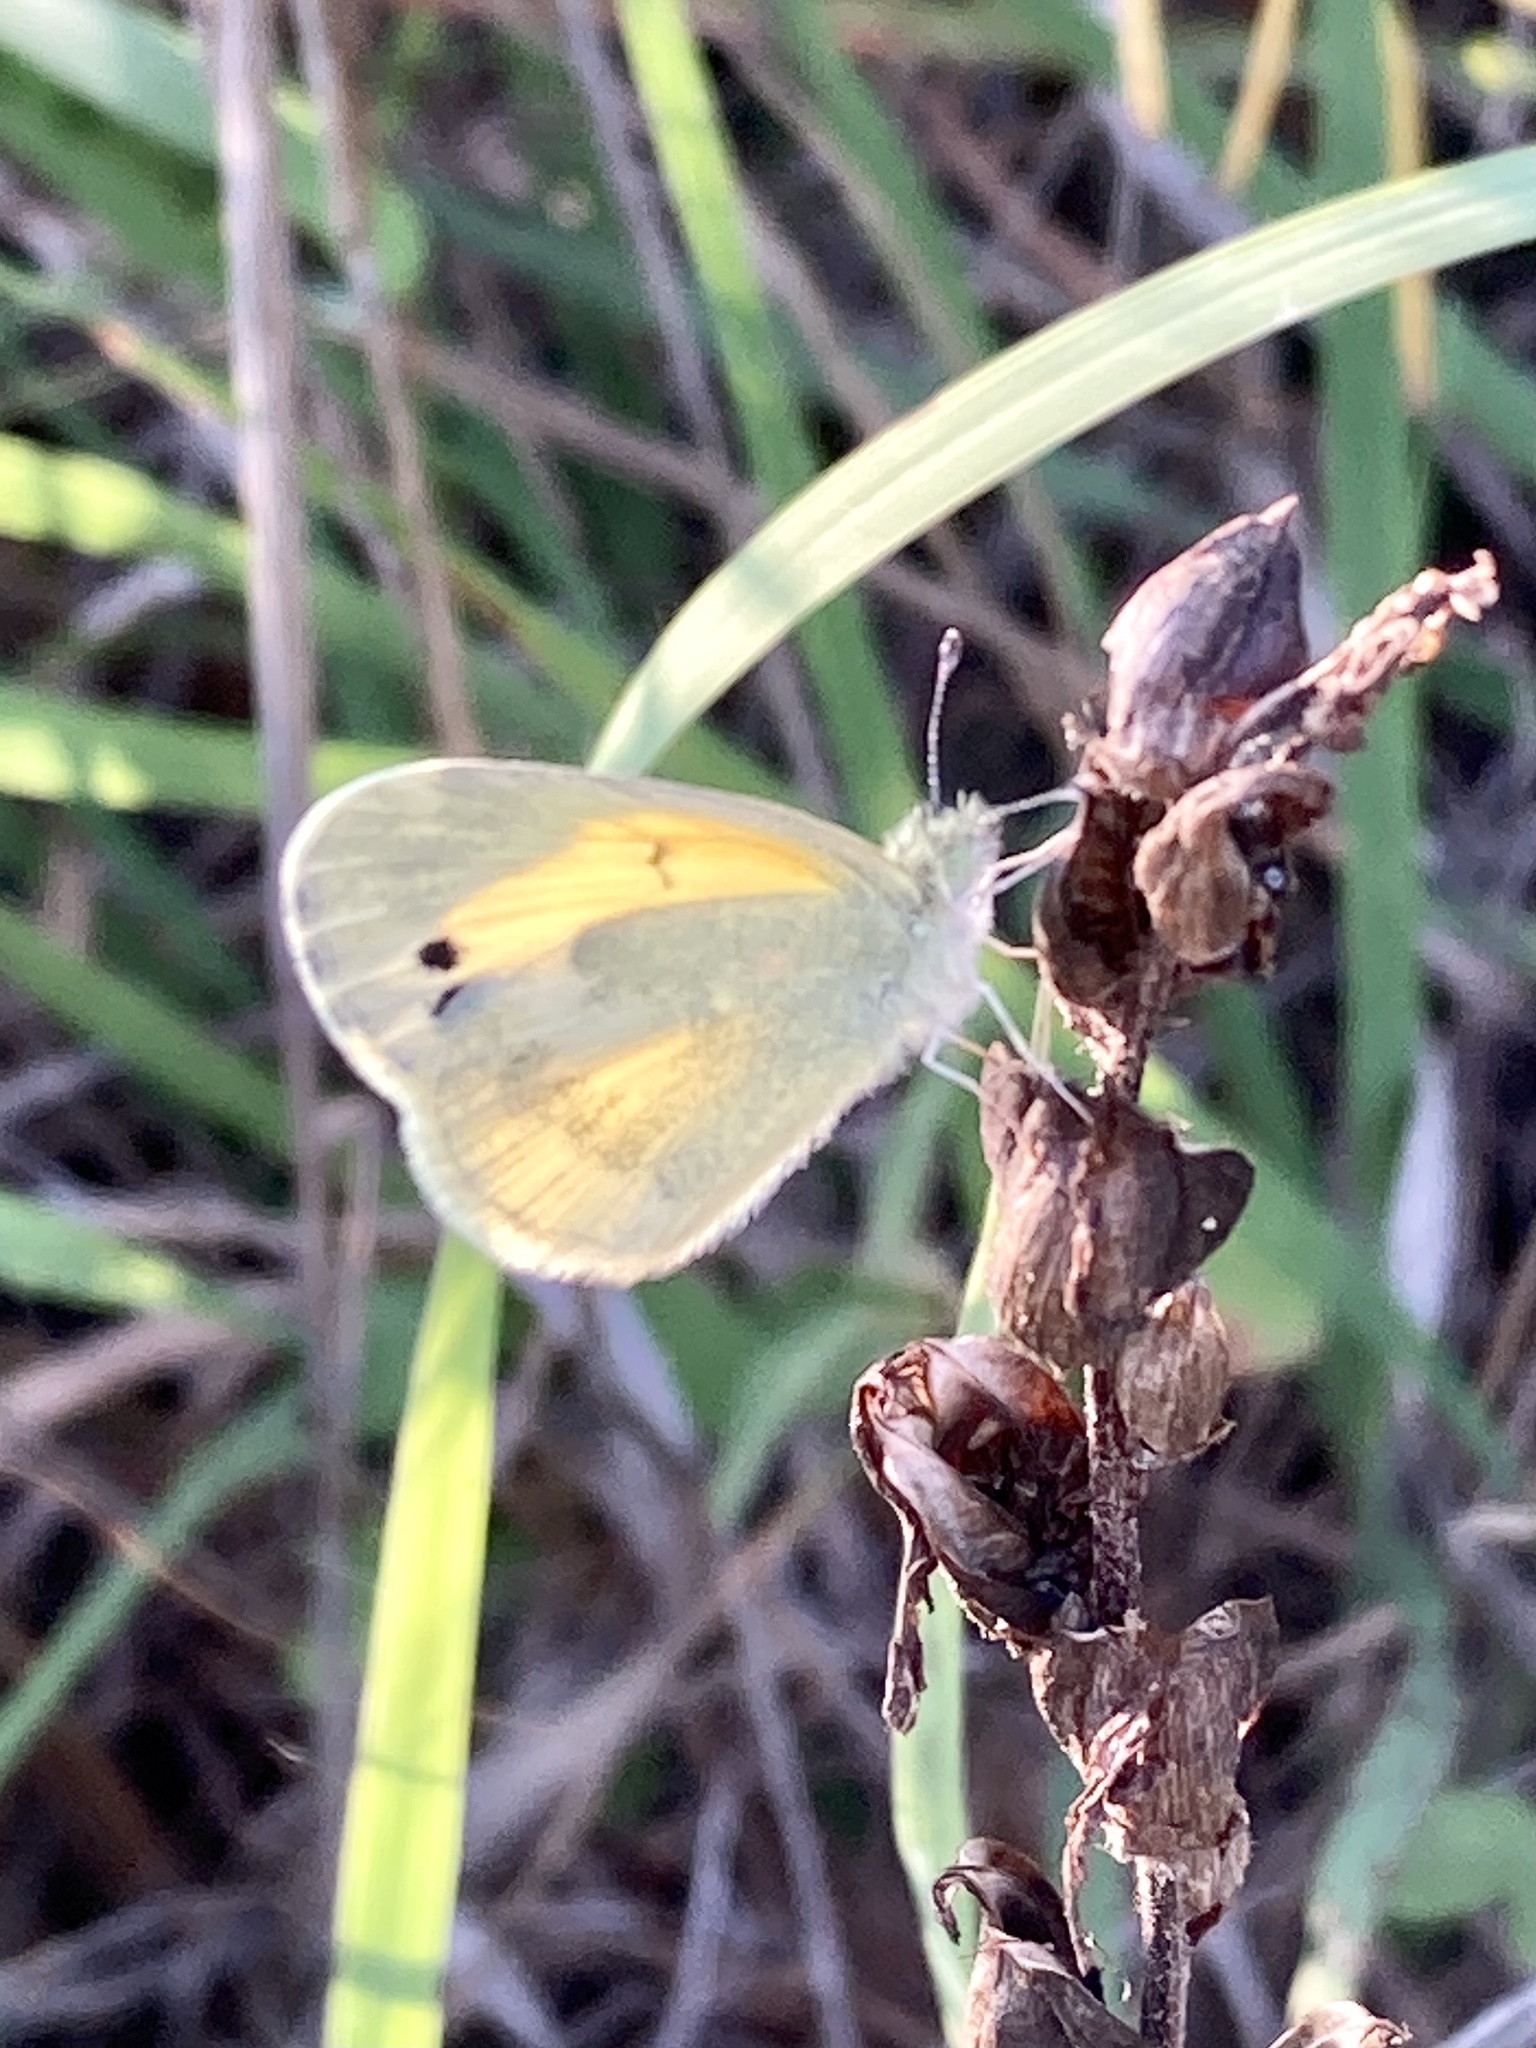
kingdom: Animalia
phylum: Arthropoda
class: Insecta
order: Lepidoptera
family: Pieridae
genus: Nathalis
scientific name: Nathalis iole
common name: Dainty sulphur
